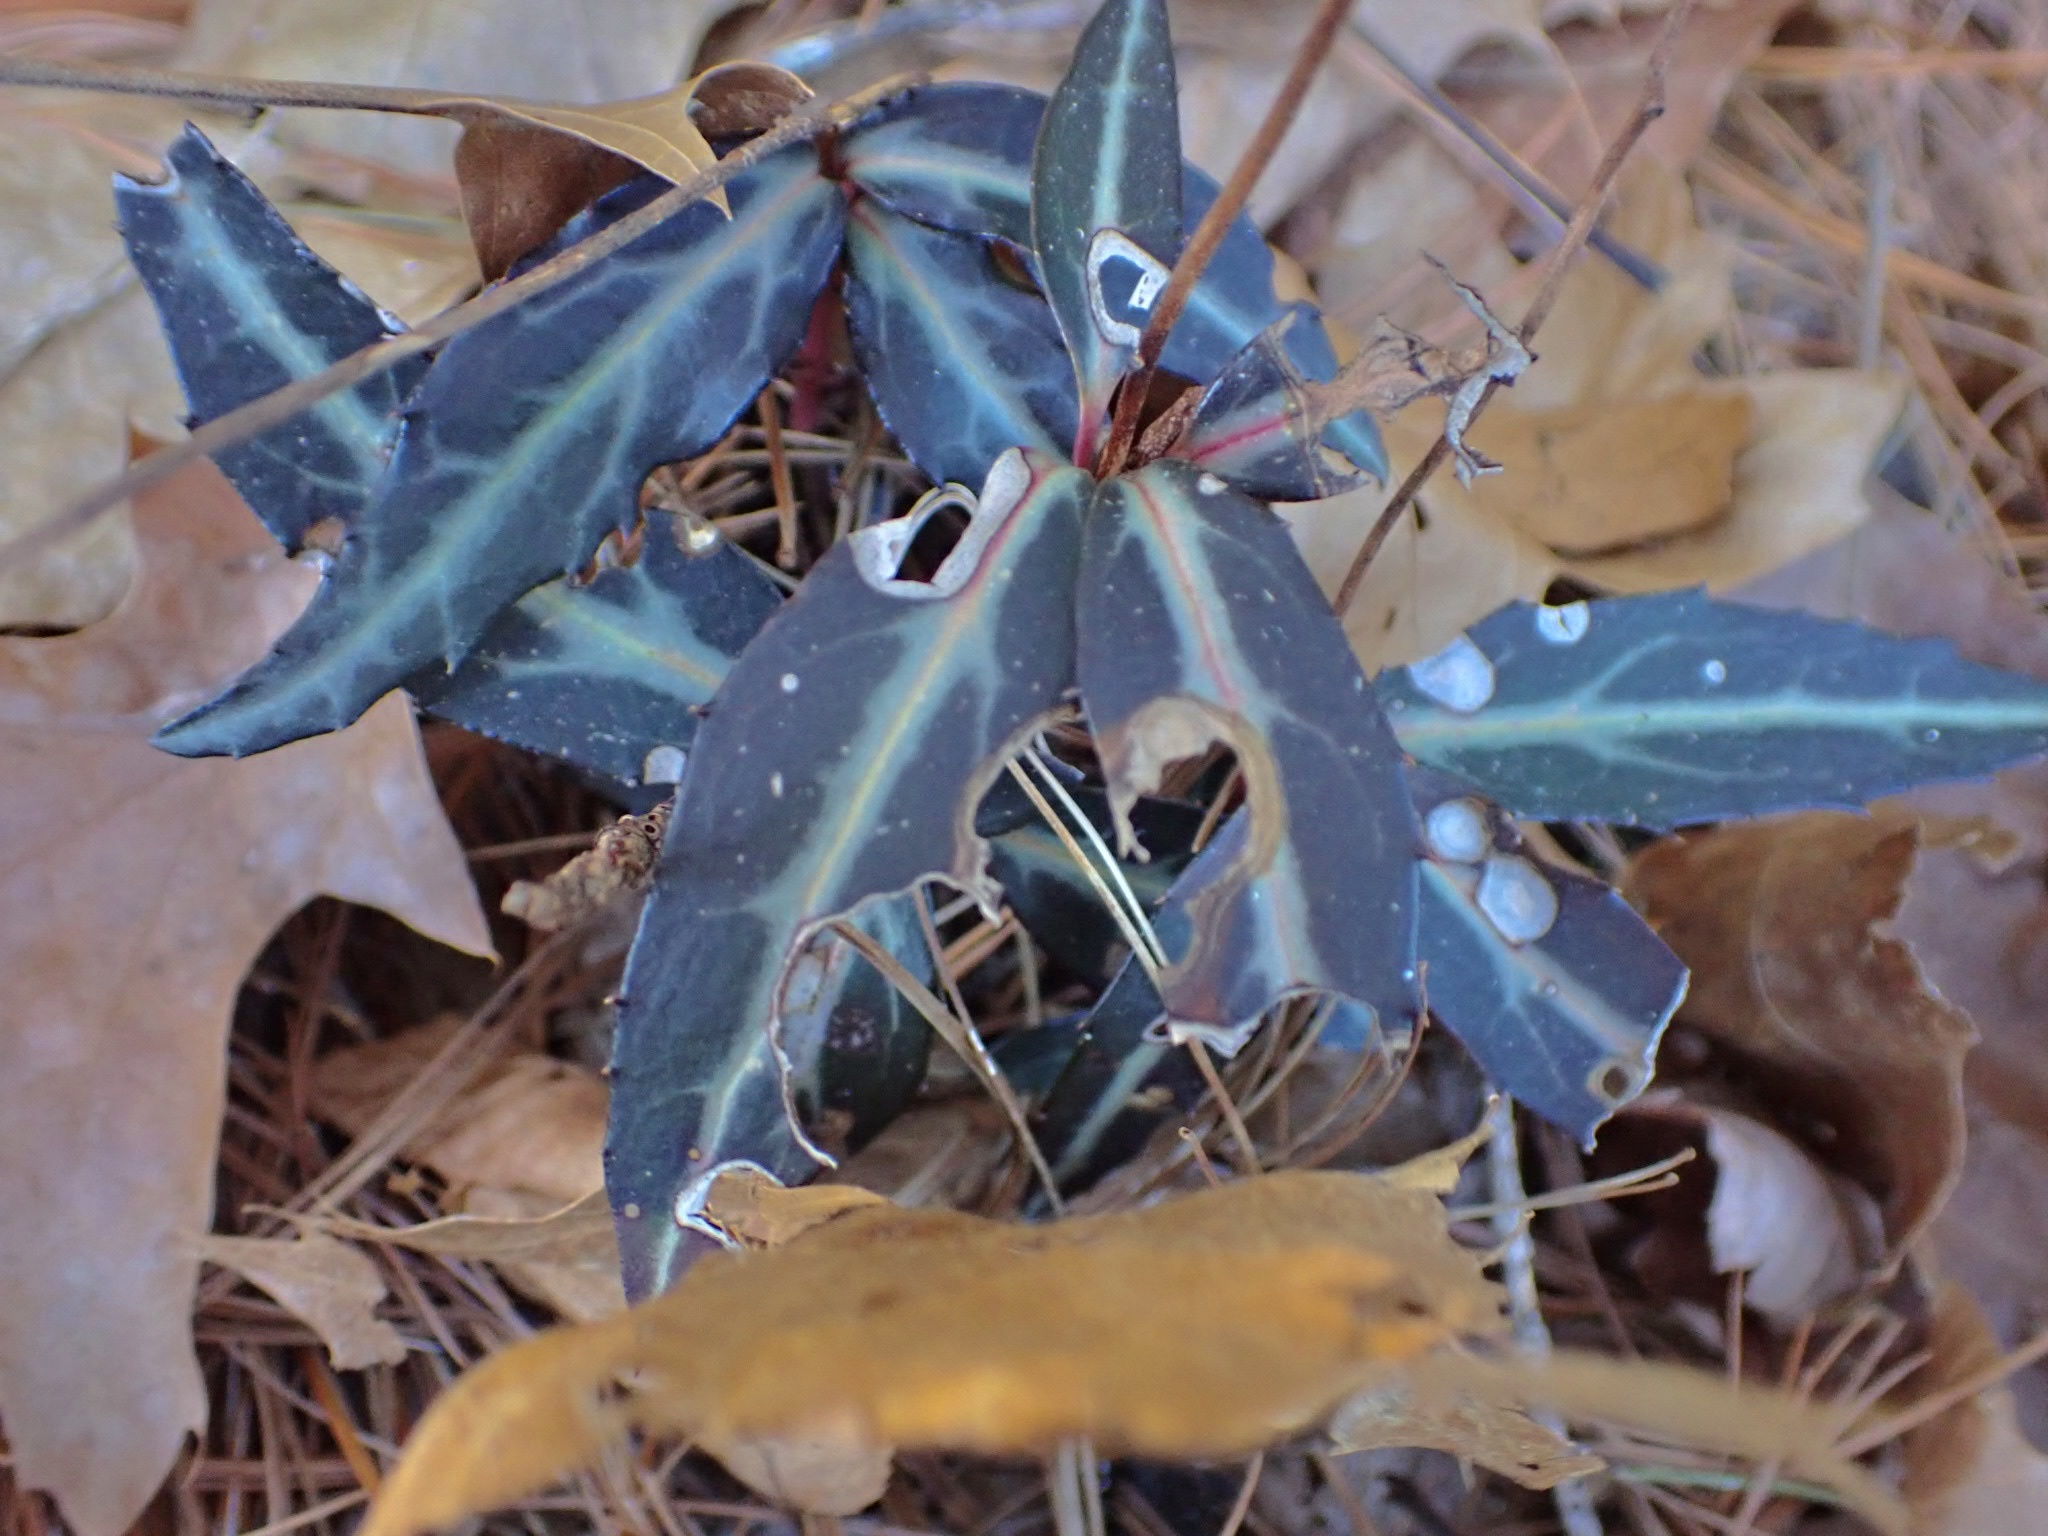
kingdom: Plantae
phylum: Tracheophyta
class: Magnoliopsida
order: Ericales
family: Ericaceae
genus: Chimaphila
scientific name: Chimaphila maculata
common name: Spotted pipsissewa
